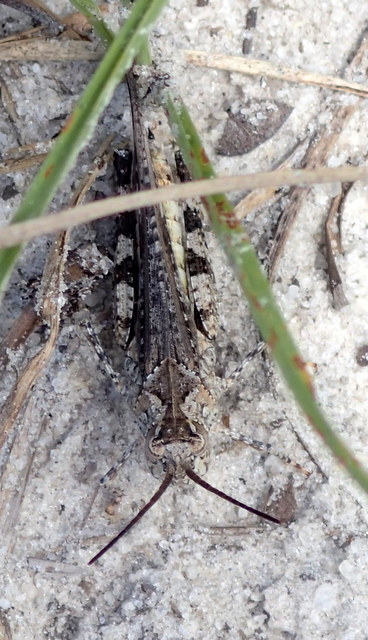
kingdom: Animalia
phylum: Arthropoda
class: Insecta
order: Orthoptera
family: Acrididae
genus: Psinidia
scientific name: Psinidia fenestralis
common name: Long-horned locust
